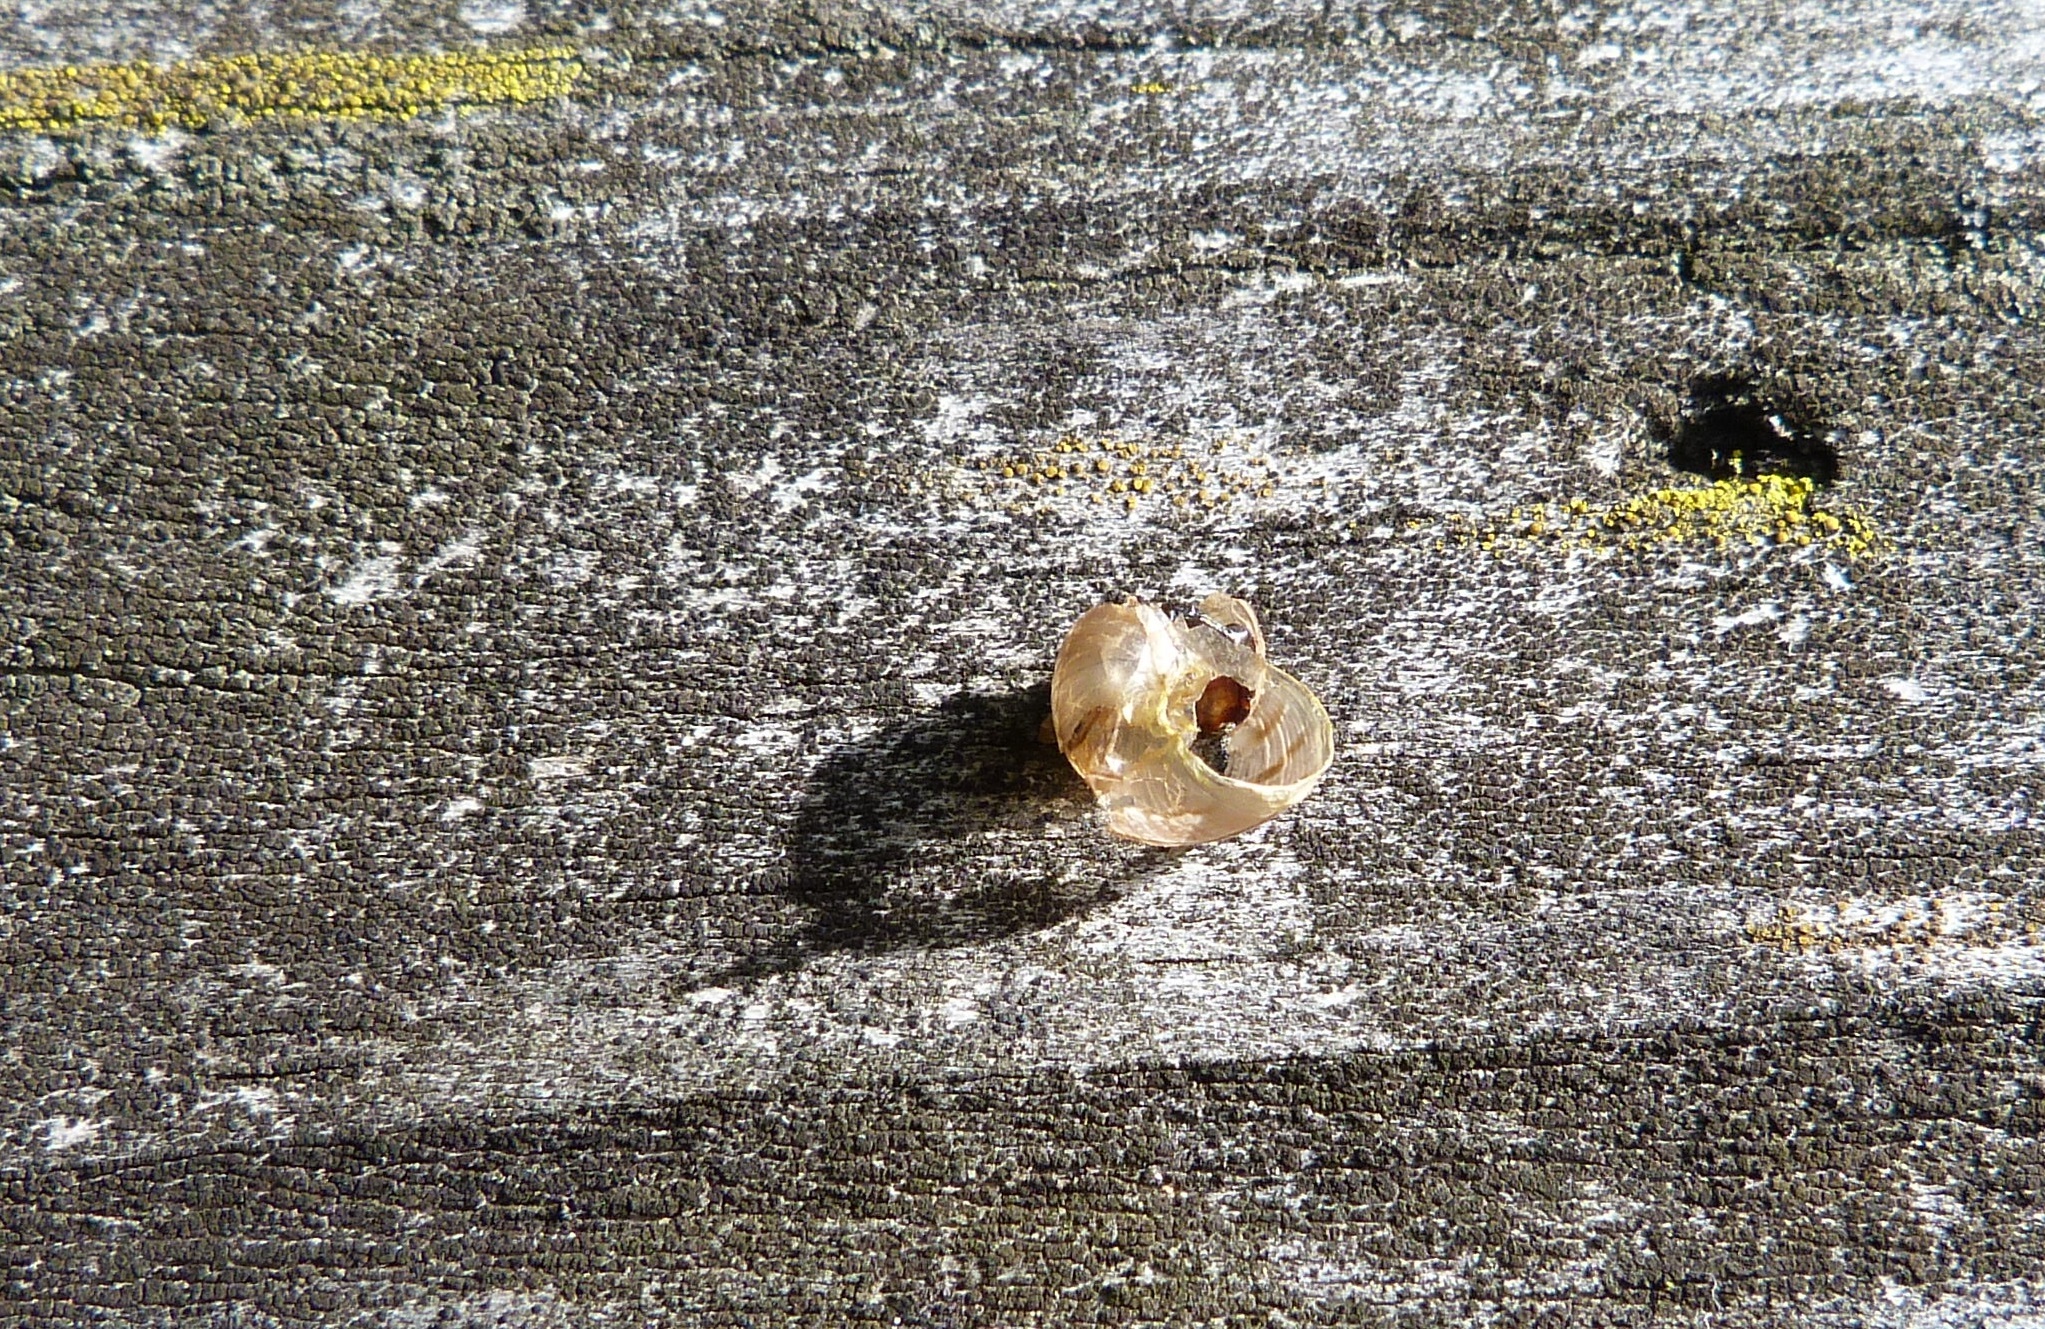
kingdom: Animalia
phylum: Mollusca
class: Gastropoda
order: Stylommatophora
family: Helicidae
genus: Cornu
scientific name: Cornu aspersum
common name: Brown garden snail
